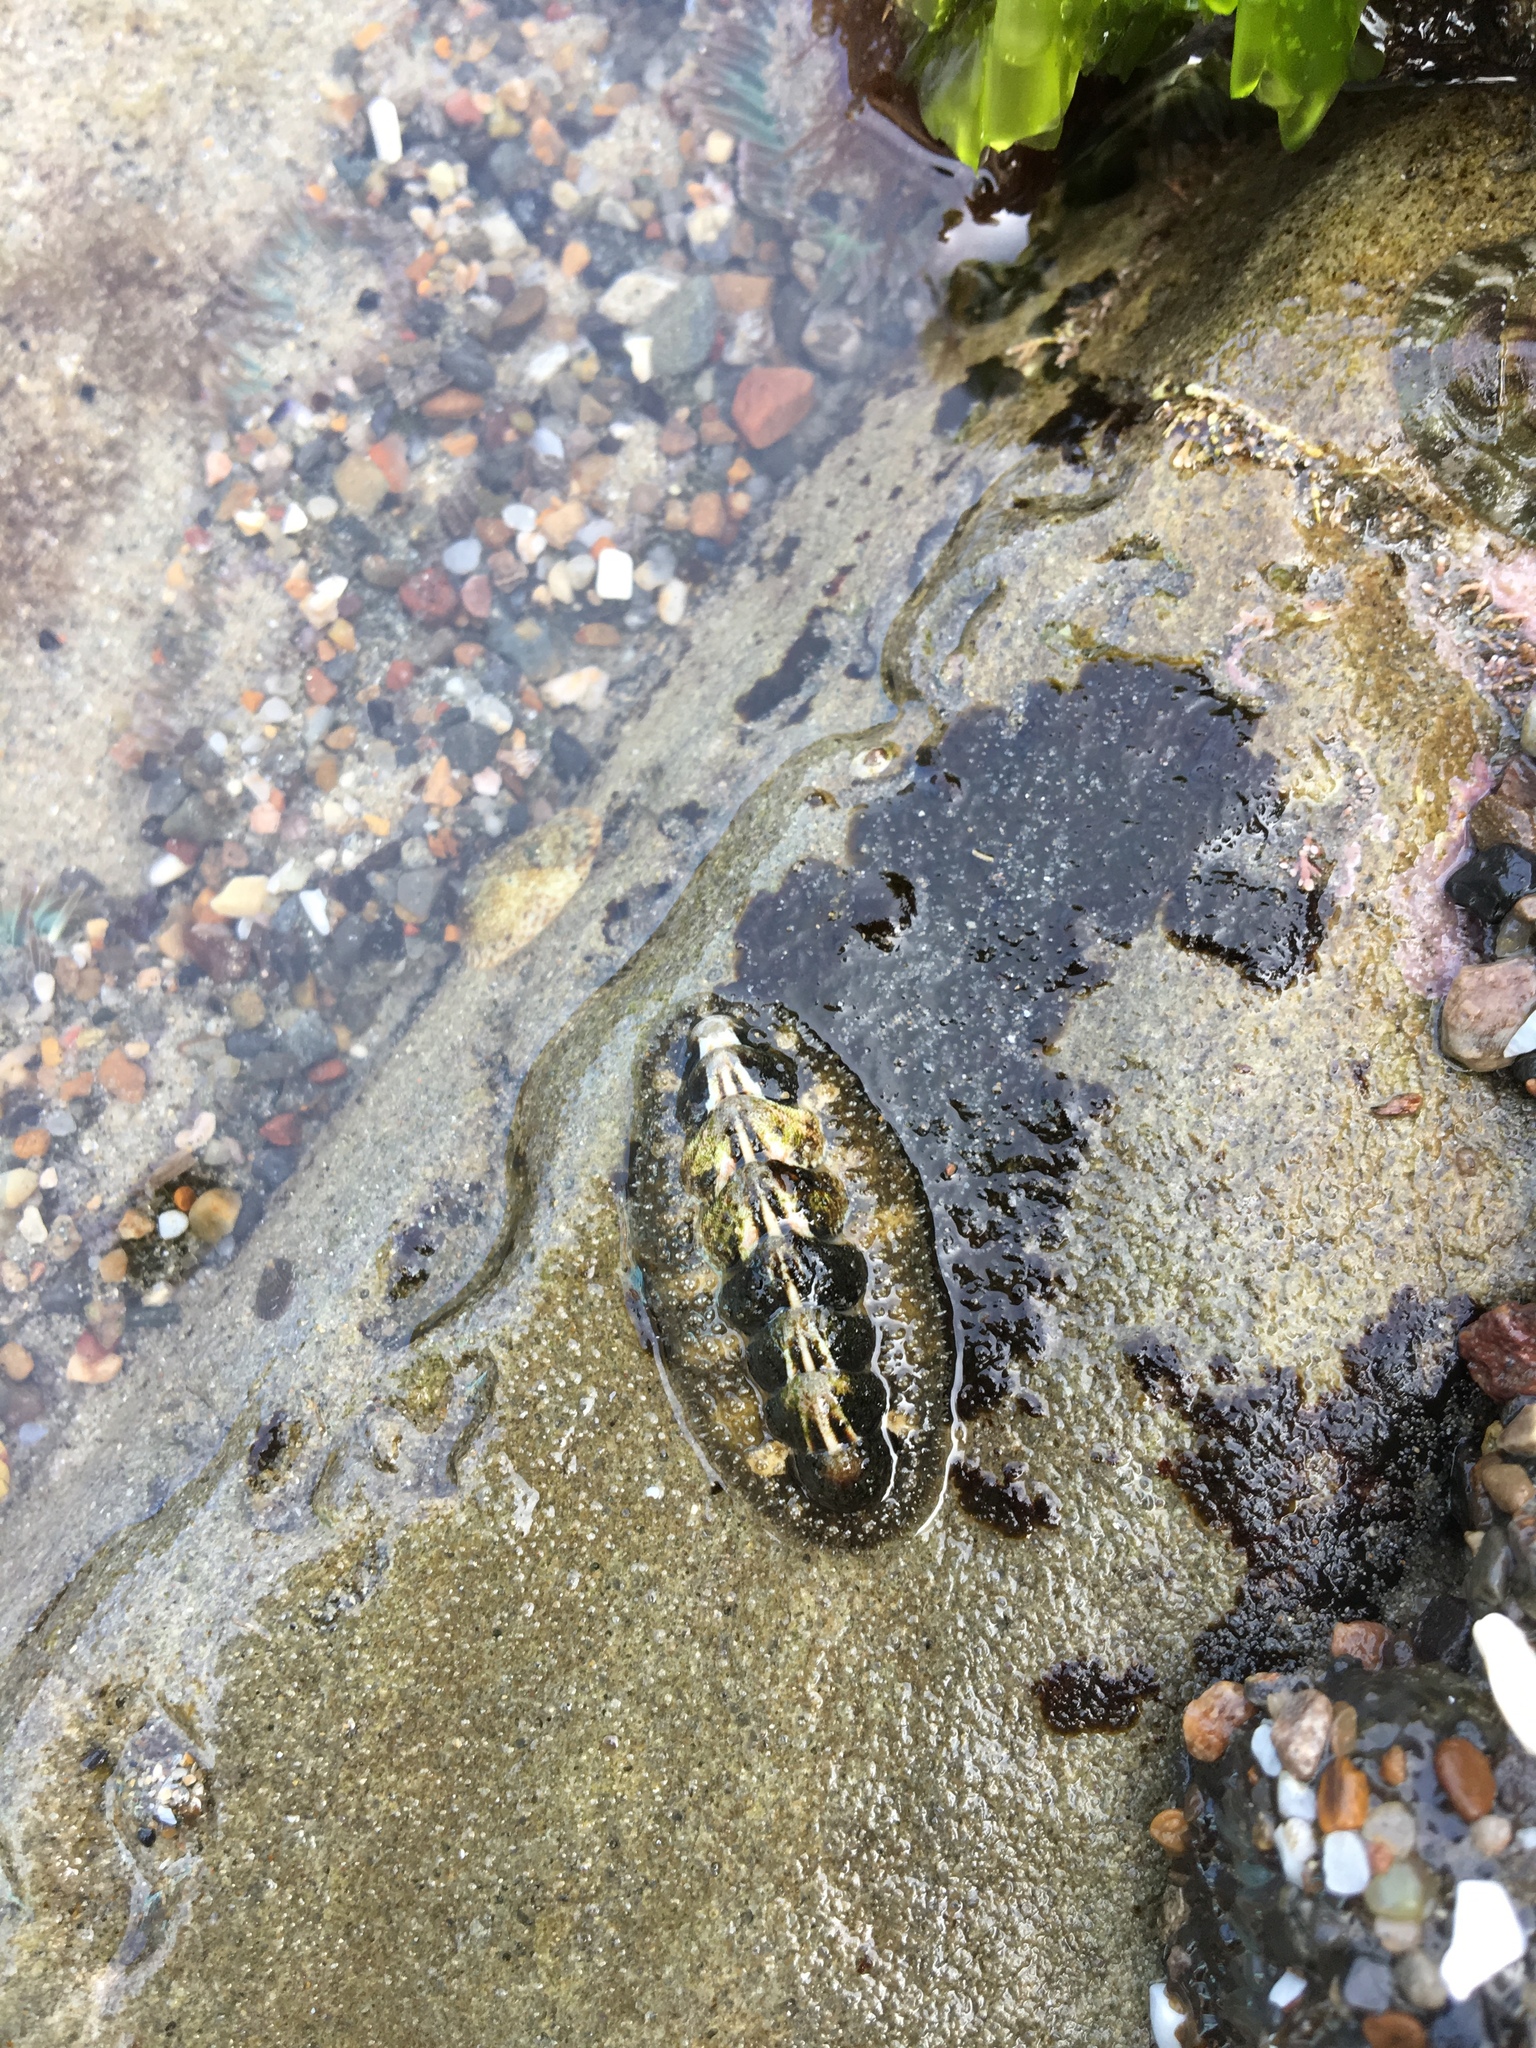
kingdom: Animalia
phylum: Mollusca
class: Polyplacophora
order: Chitonida
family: Tonicellidae
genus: Nuttallina
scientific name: Nuttallina californica
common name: California nuttall chiton
